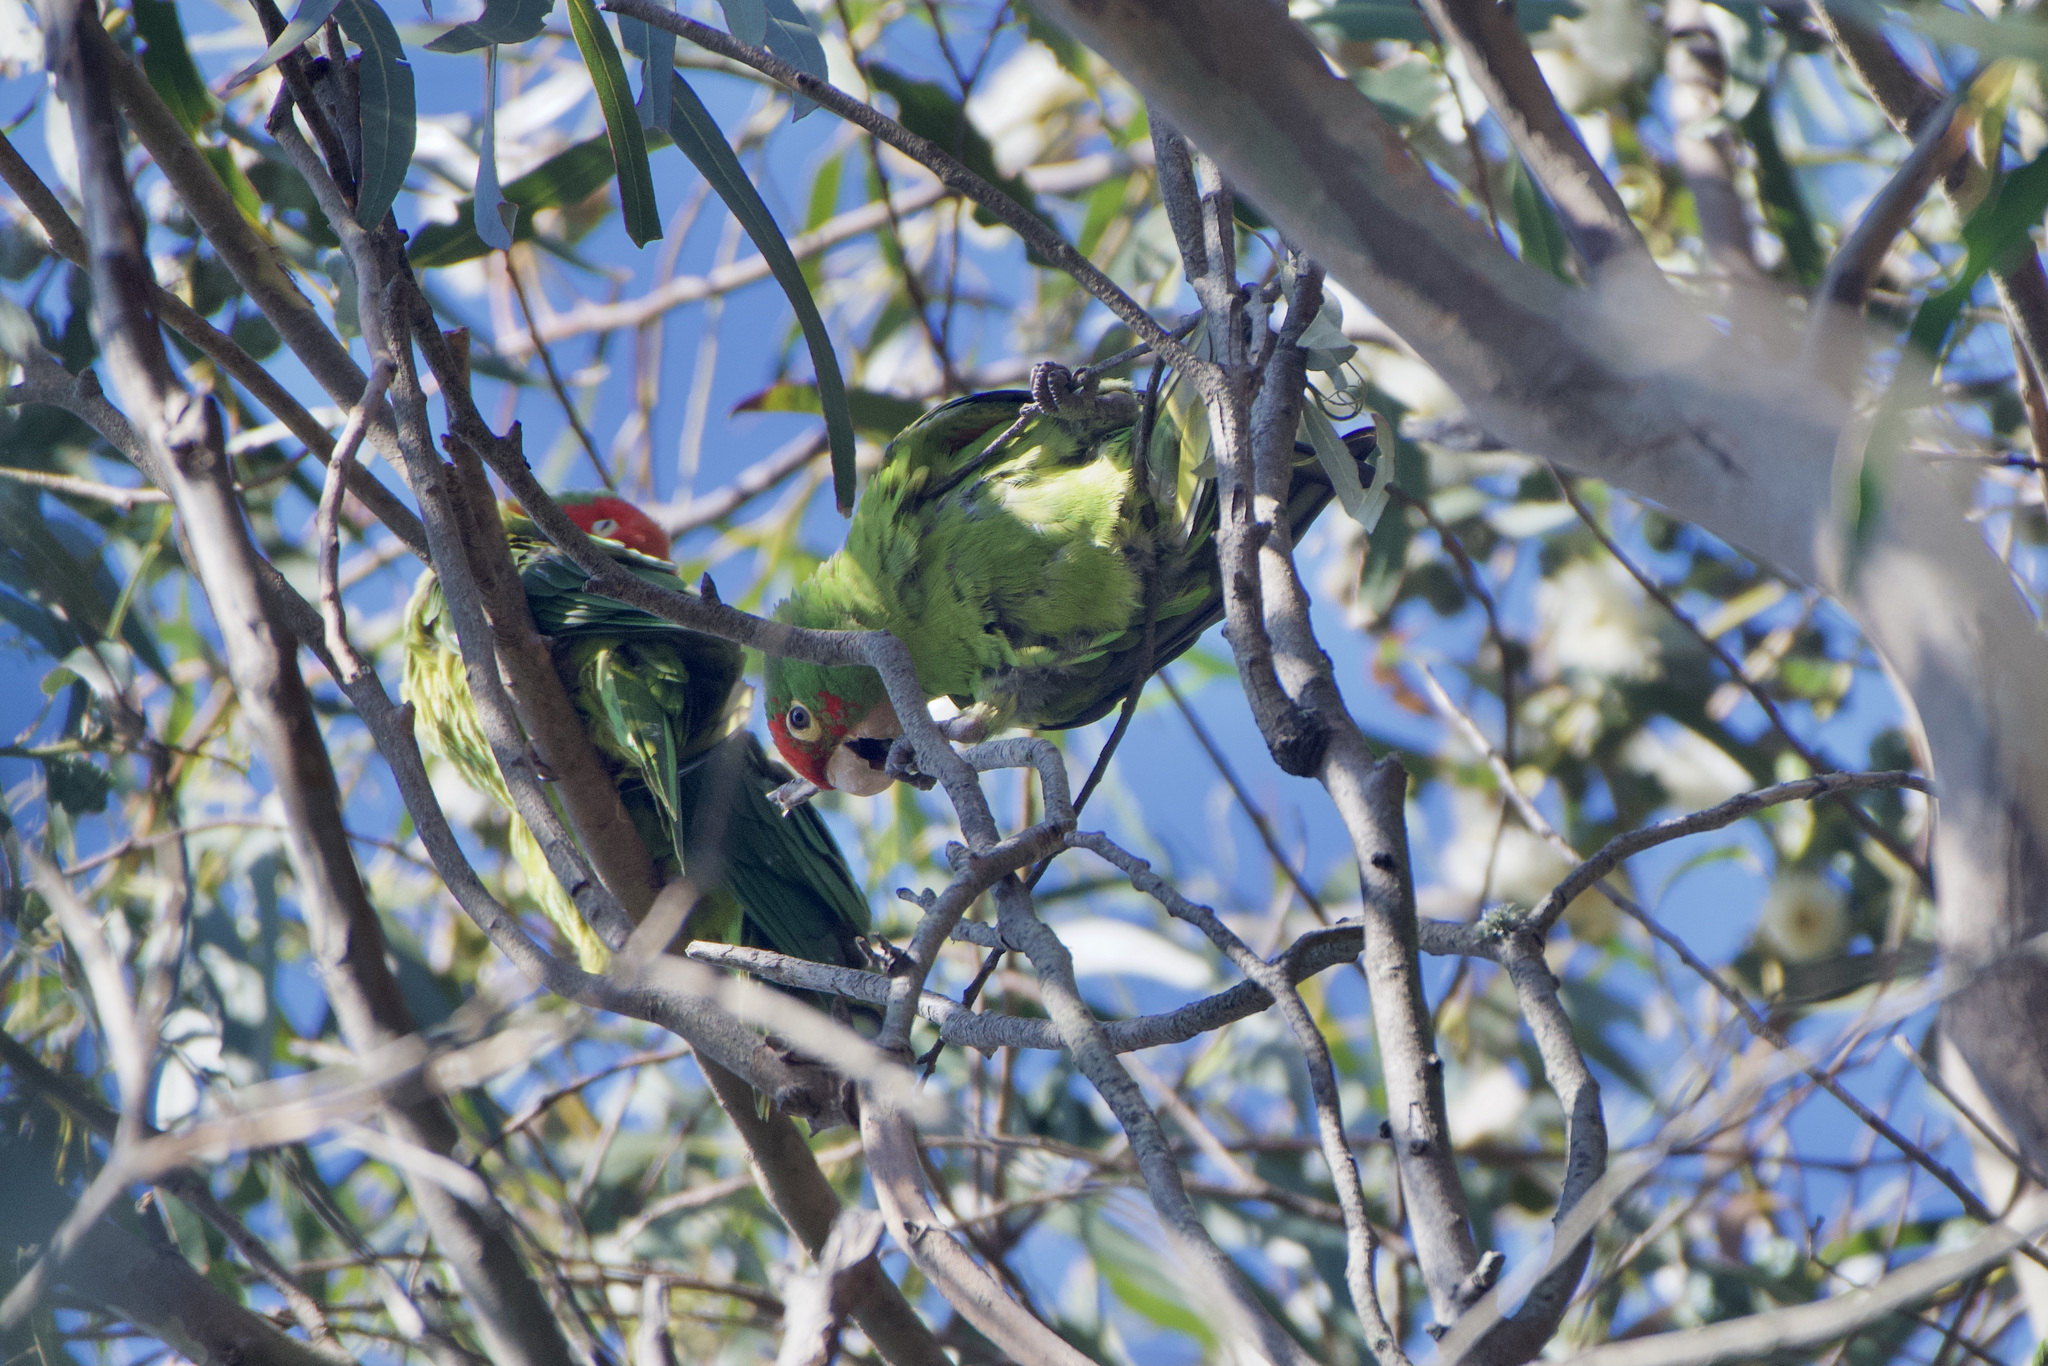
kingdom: Animalia
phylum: Chordata
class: Aves
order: Psittaciformes
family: Psittacidae
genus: Aratinga
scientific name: Aratinga erythrogenys
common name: Red-masked parakeet
